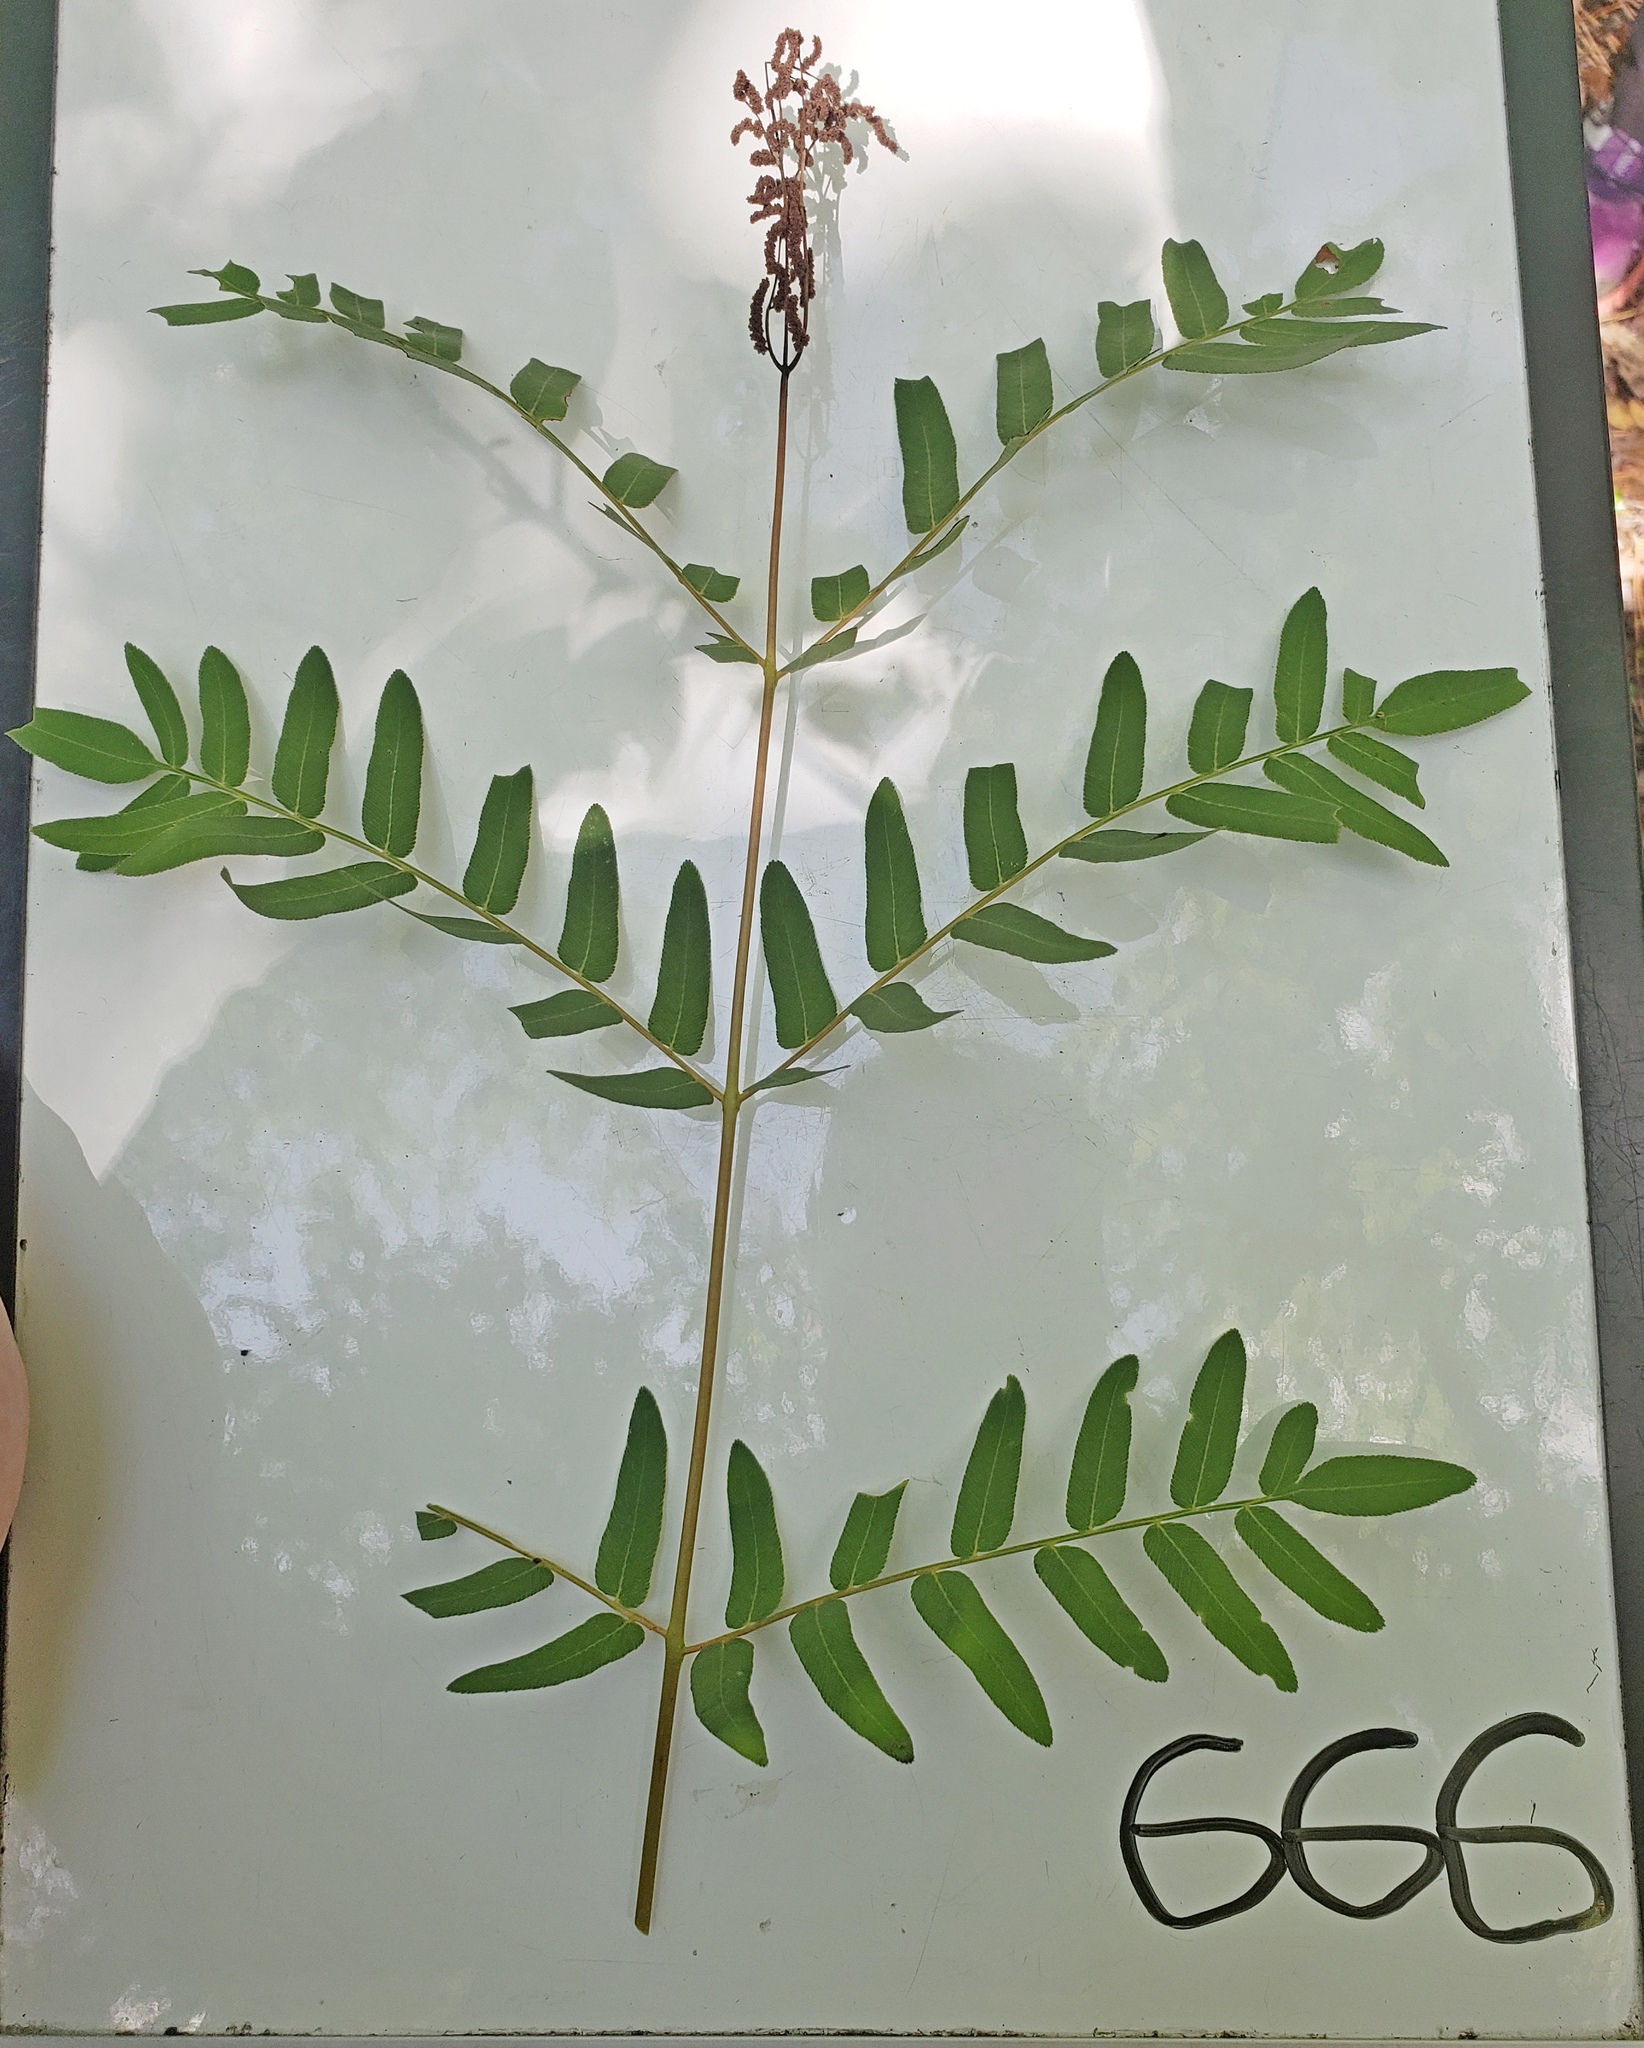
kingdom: Plantae
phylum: Tracheophyta
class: Polypodiopsida
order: Osmundales
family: Osmundaceae
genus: Osmunda
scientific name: Osmunda spectabilis
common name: American royal fern
